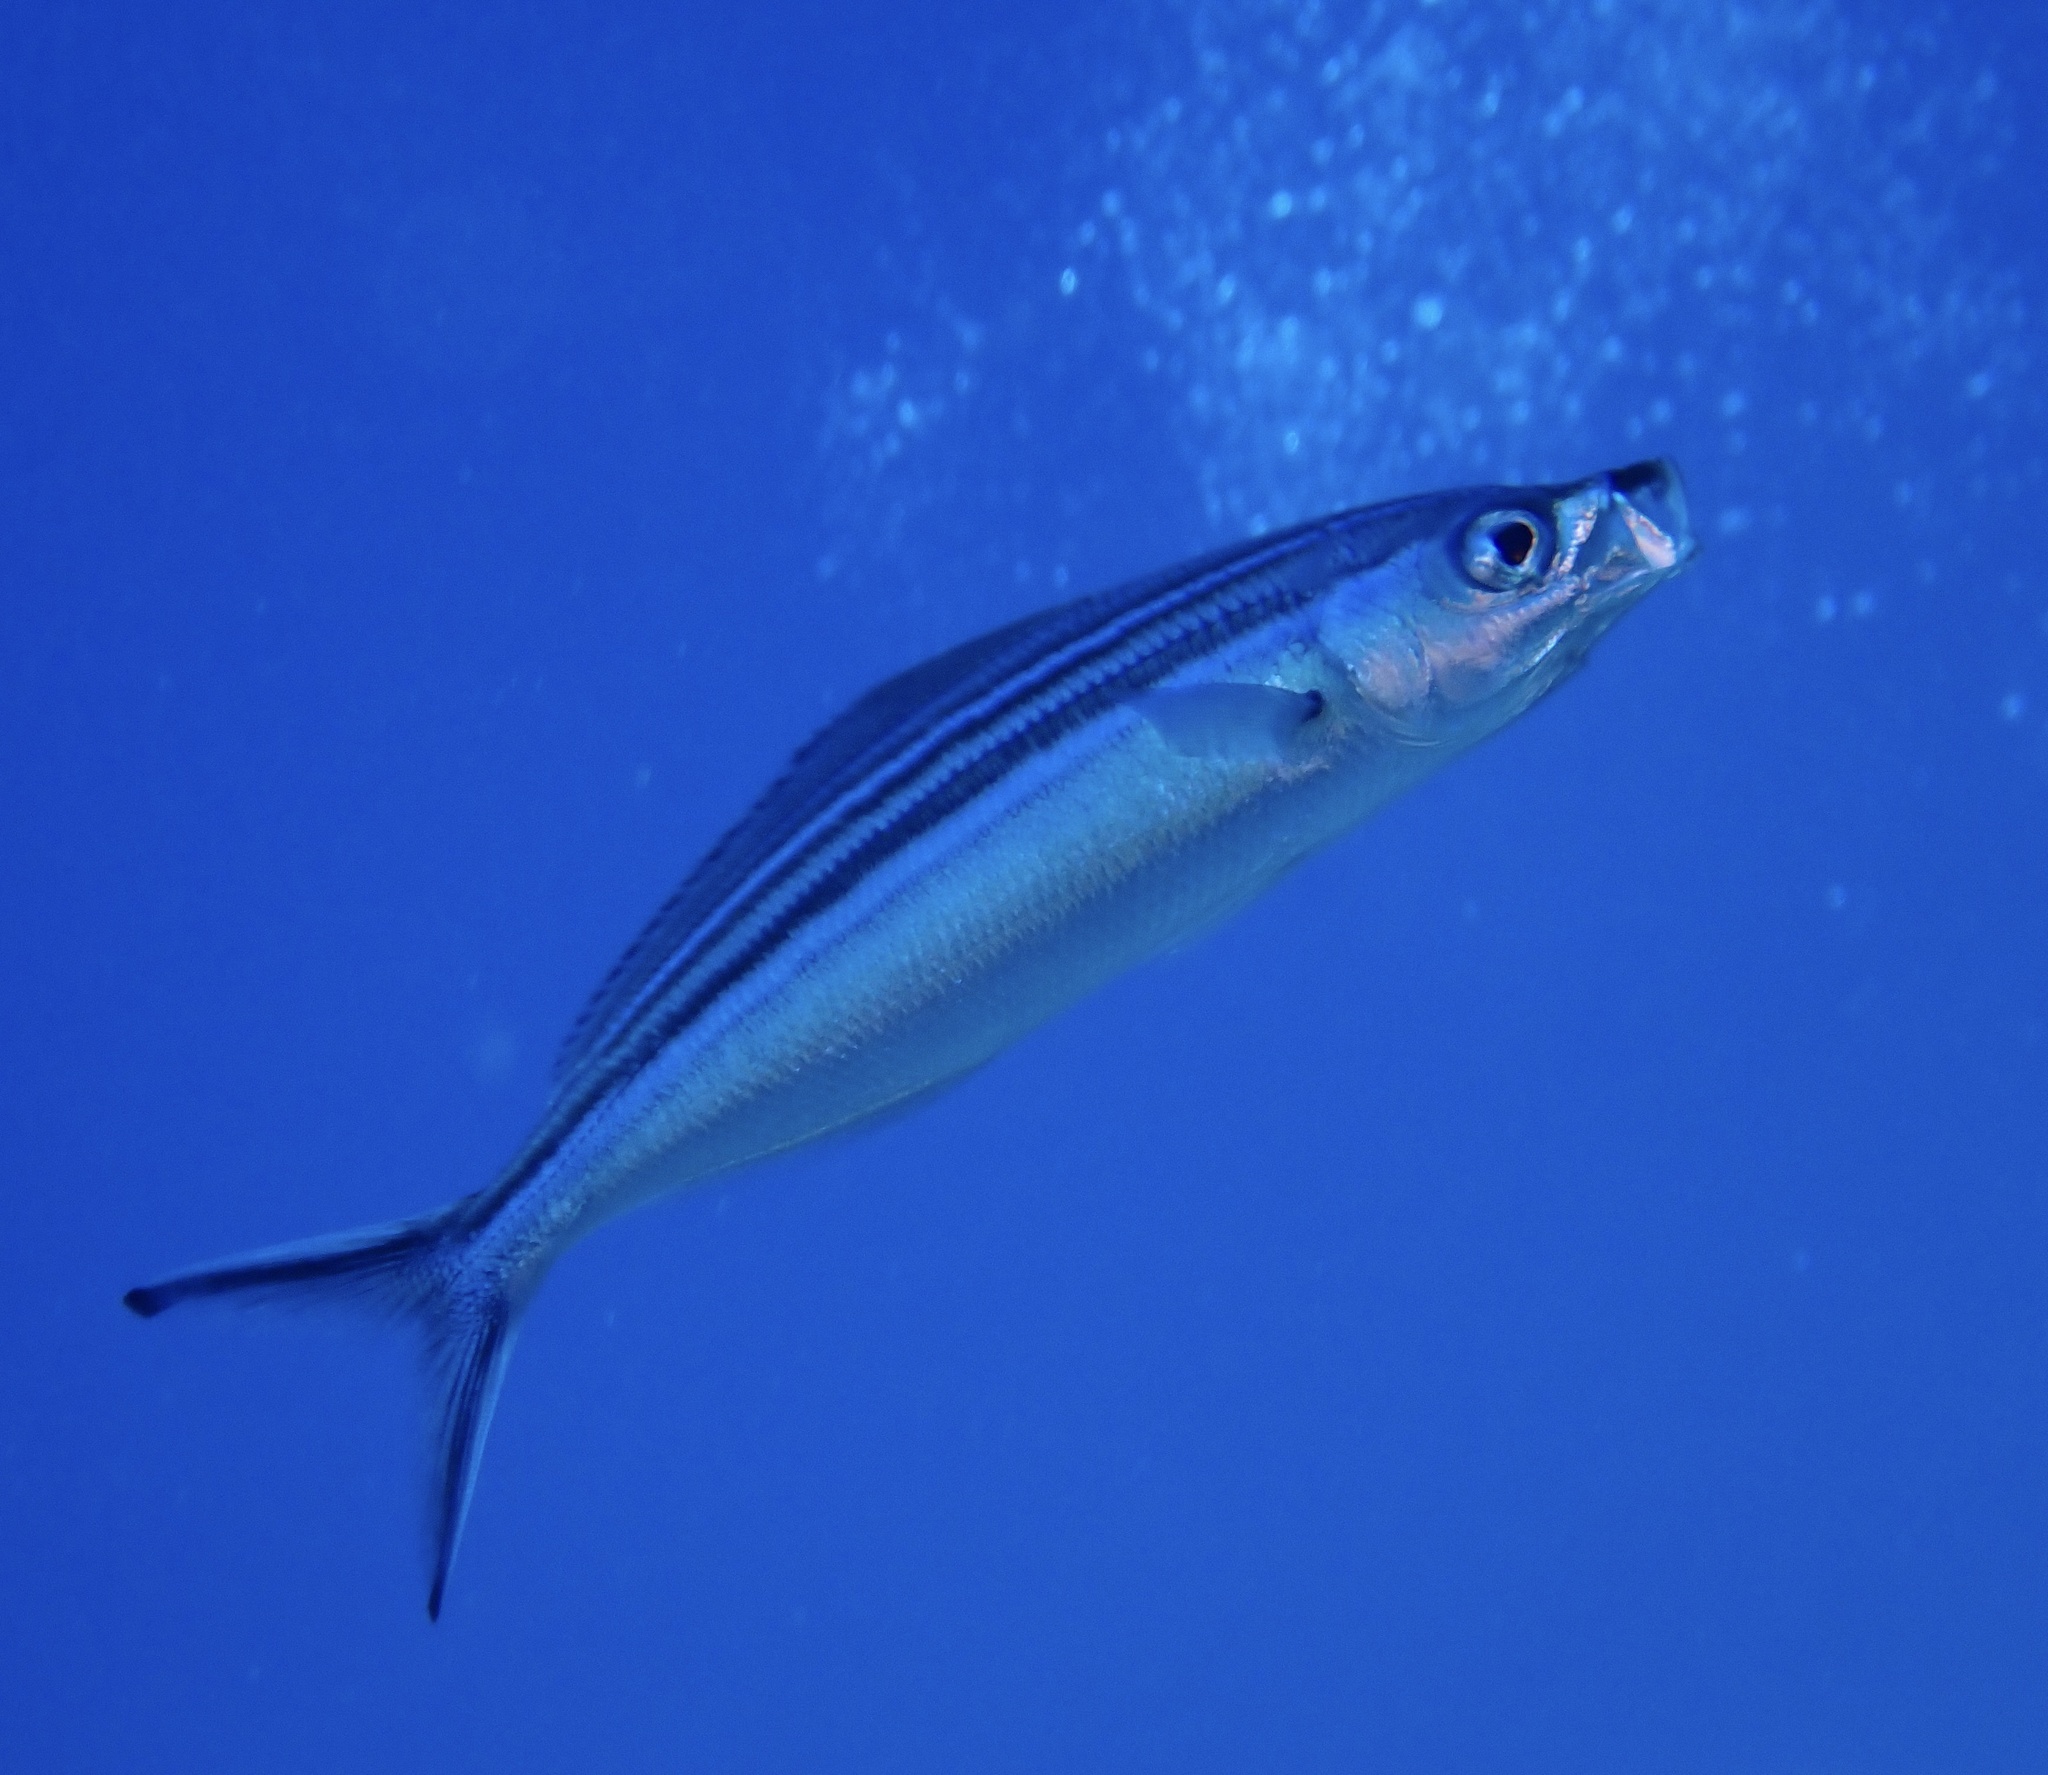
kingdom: Animalia
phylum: Chordata
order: Perciformes
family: Caesionidae
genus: Caesio
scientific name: Caesio striata
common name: Striated fusilier
